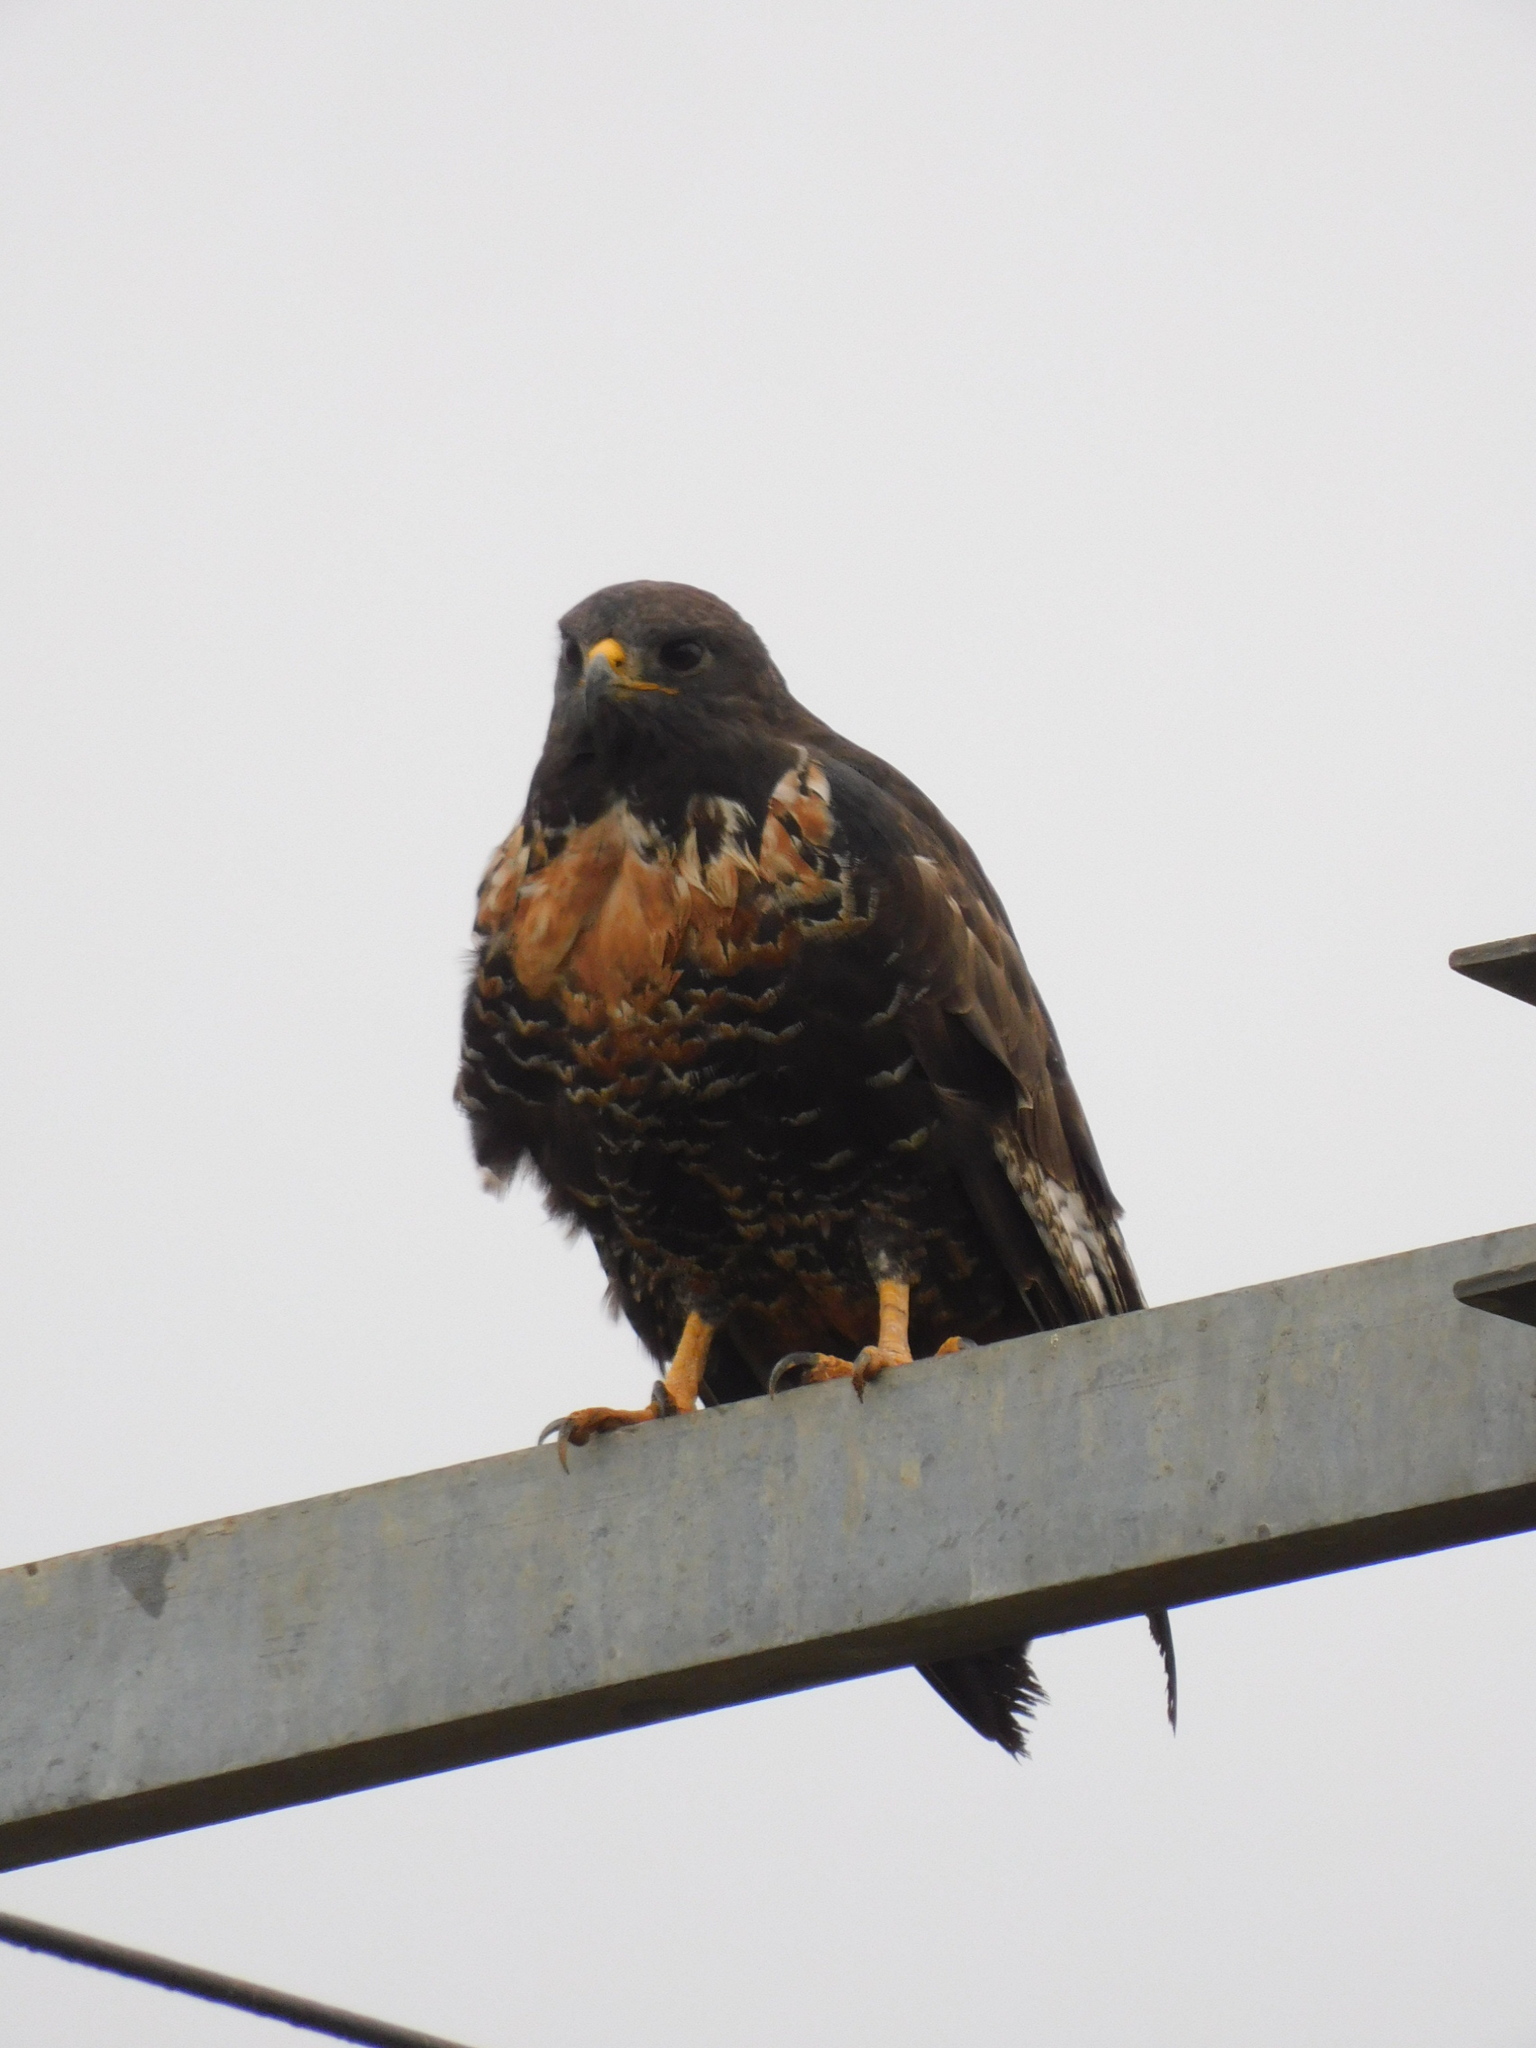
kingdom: Animalia
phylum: Chordata
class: Aves
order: Accipitriformes
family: Accipitridae
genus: Buteo
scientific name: Buteo rufofuscus
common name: Jackal buzzard
